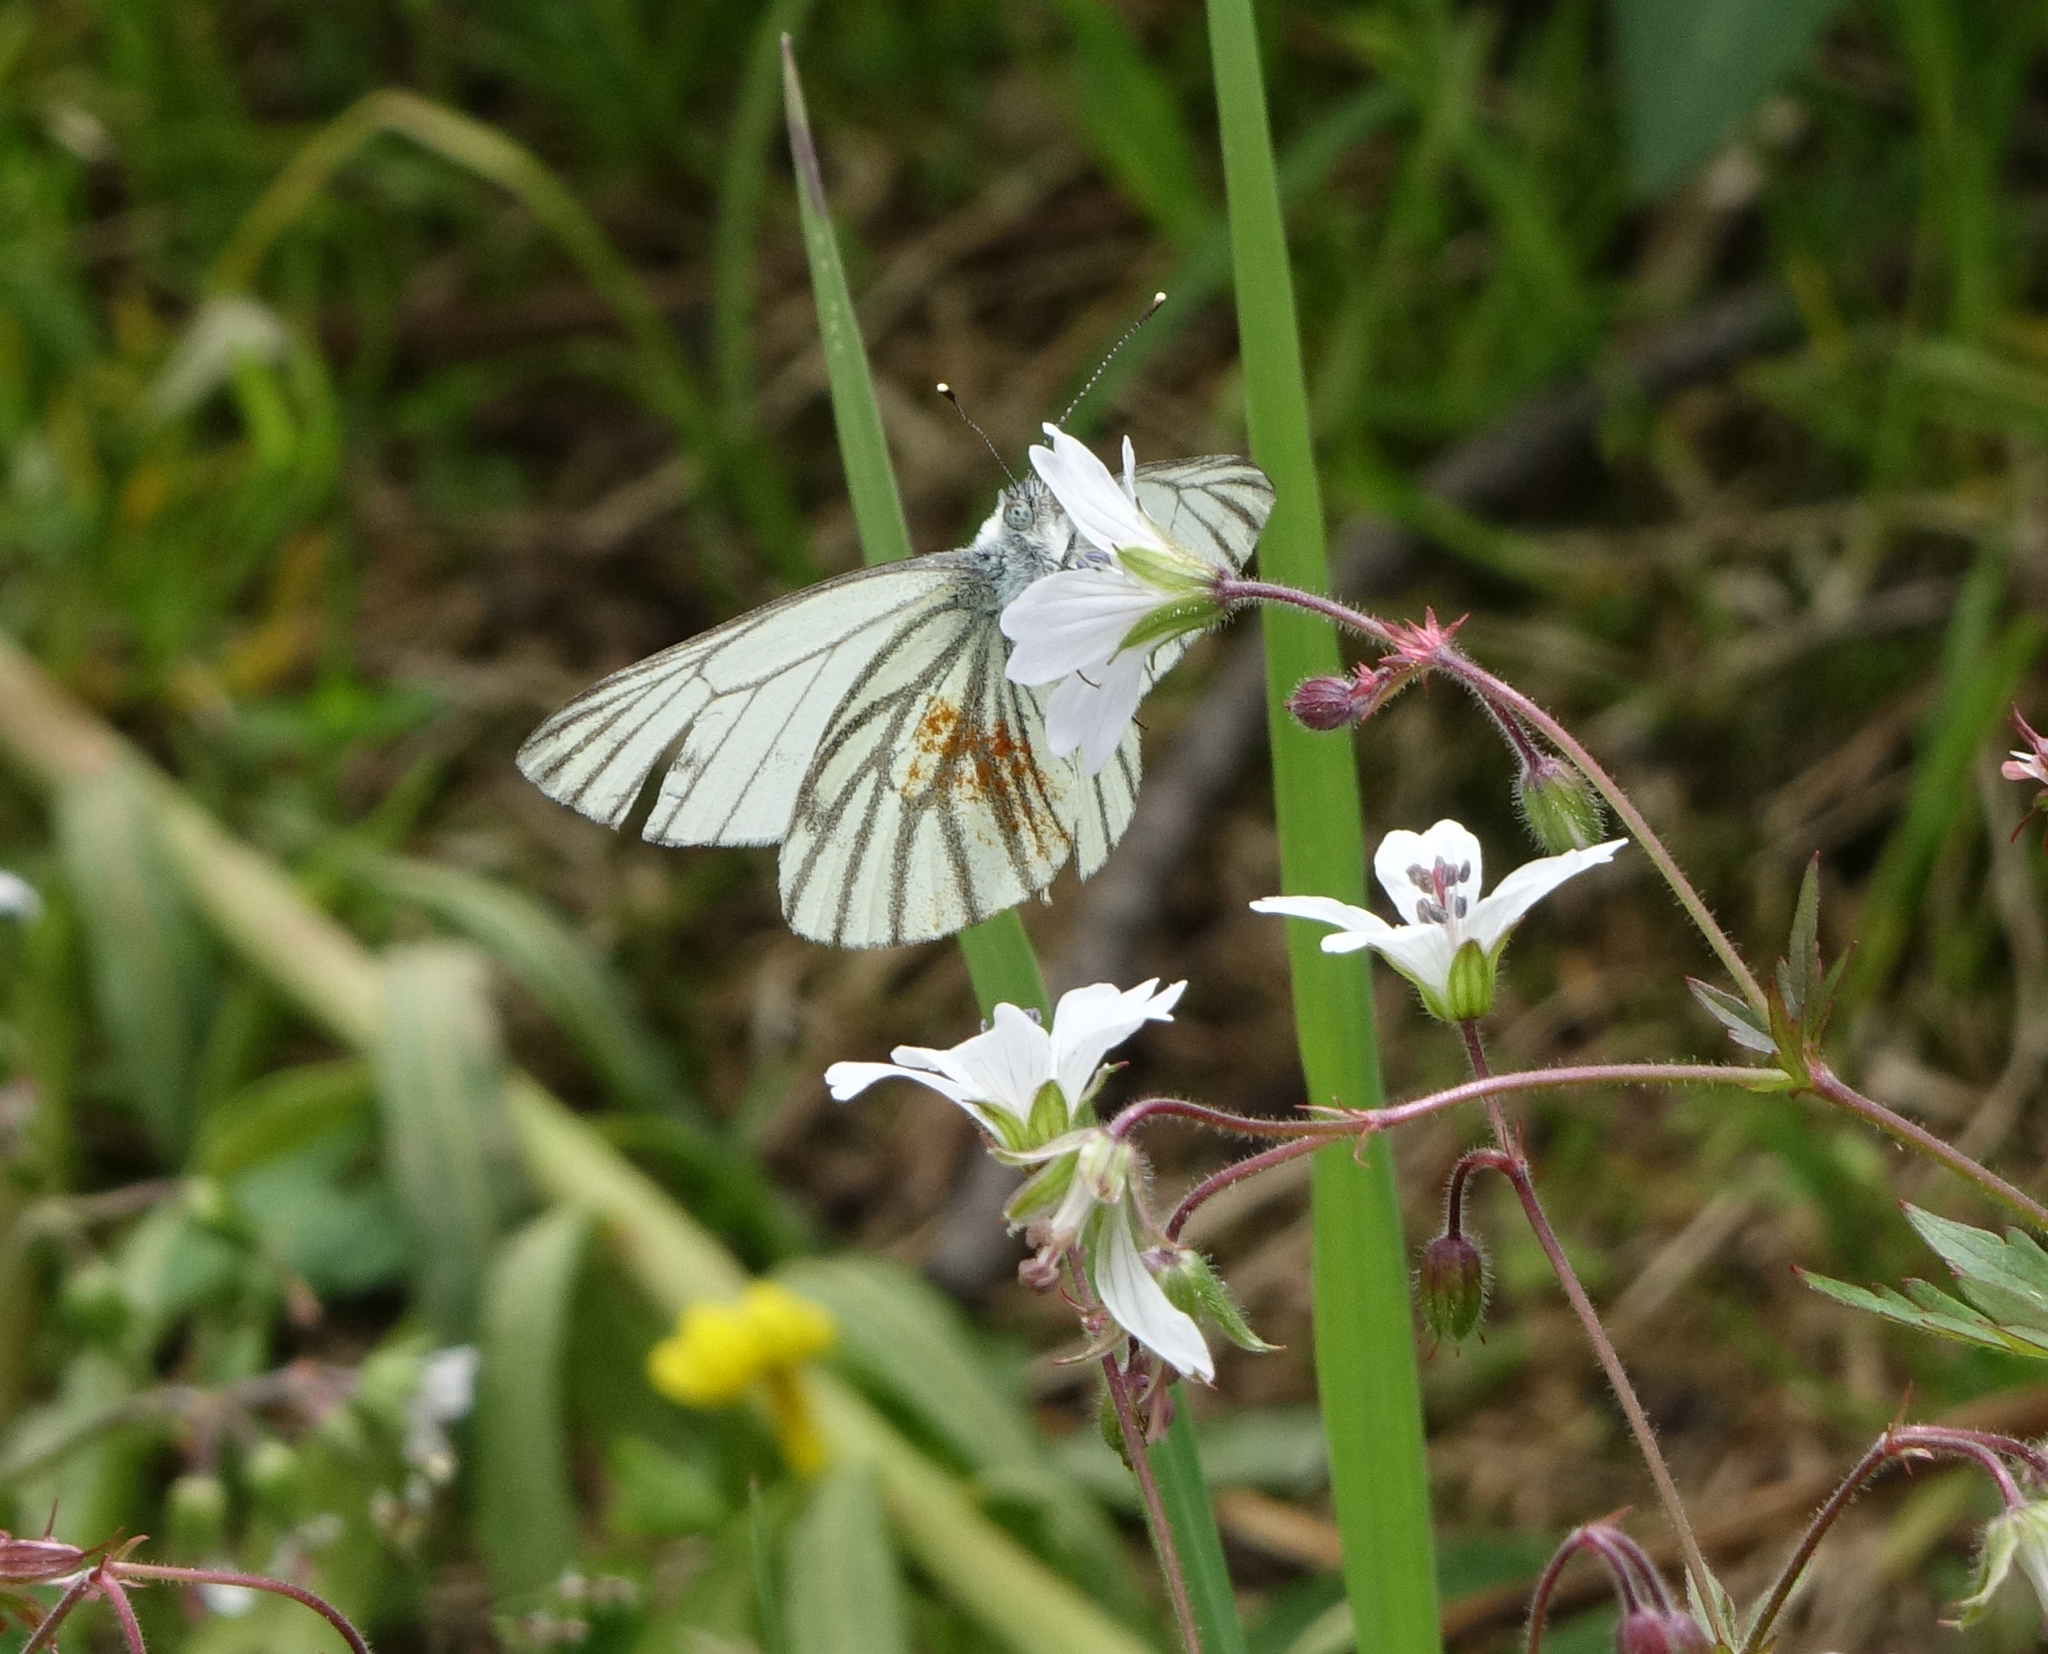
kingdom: Animalia
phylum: Arthropoda
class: Insecta
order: Lepidoptera
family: Pieridae
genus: Pieris
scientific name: Pieris napi
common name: Green-veined white
